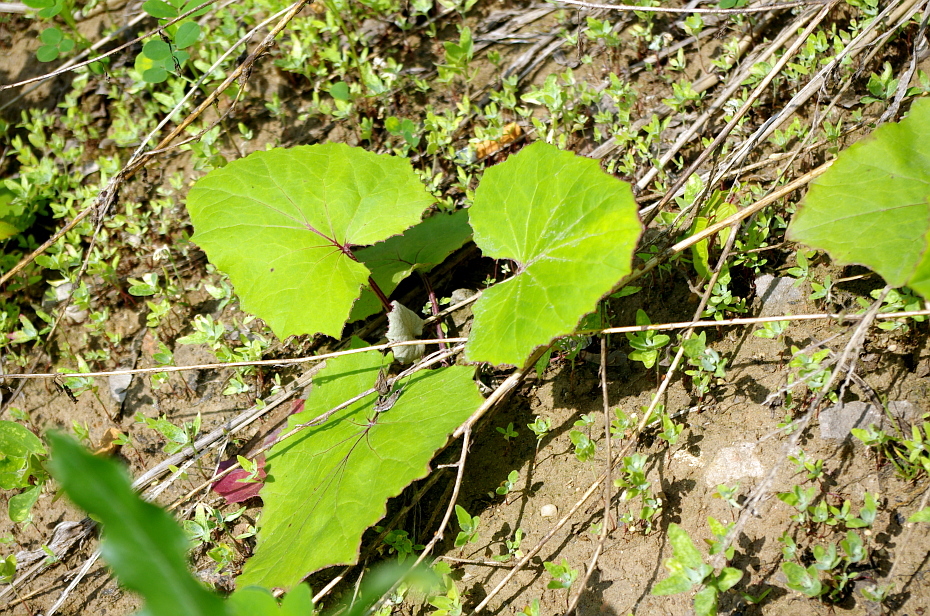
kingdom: Plantae
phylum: Tracheophyta
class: Magnoliopsida
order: Asterales
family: Asteraceae
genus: Tussilago
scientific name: Tussilago farfara
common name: Coltsfoot
